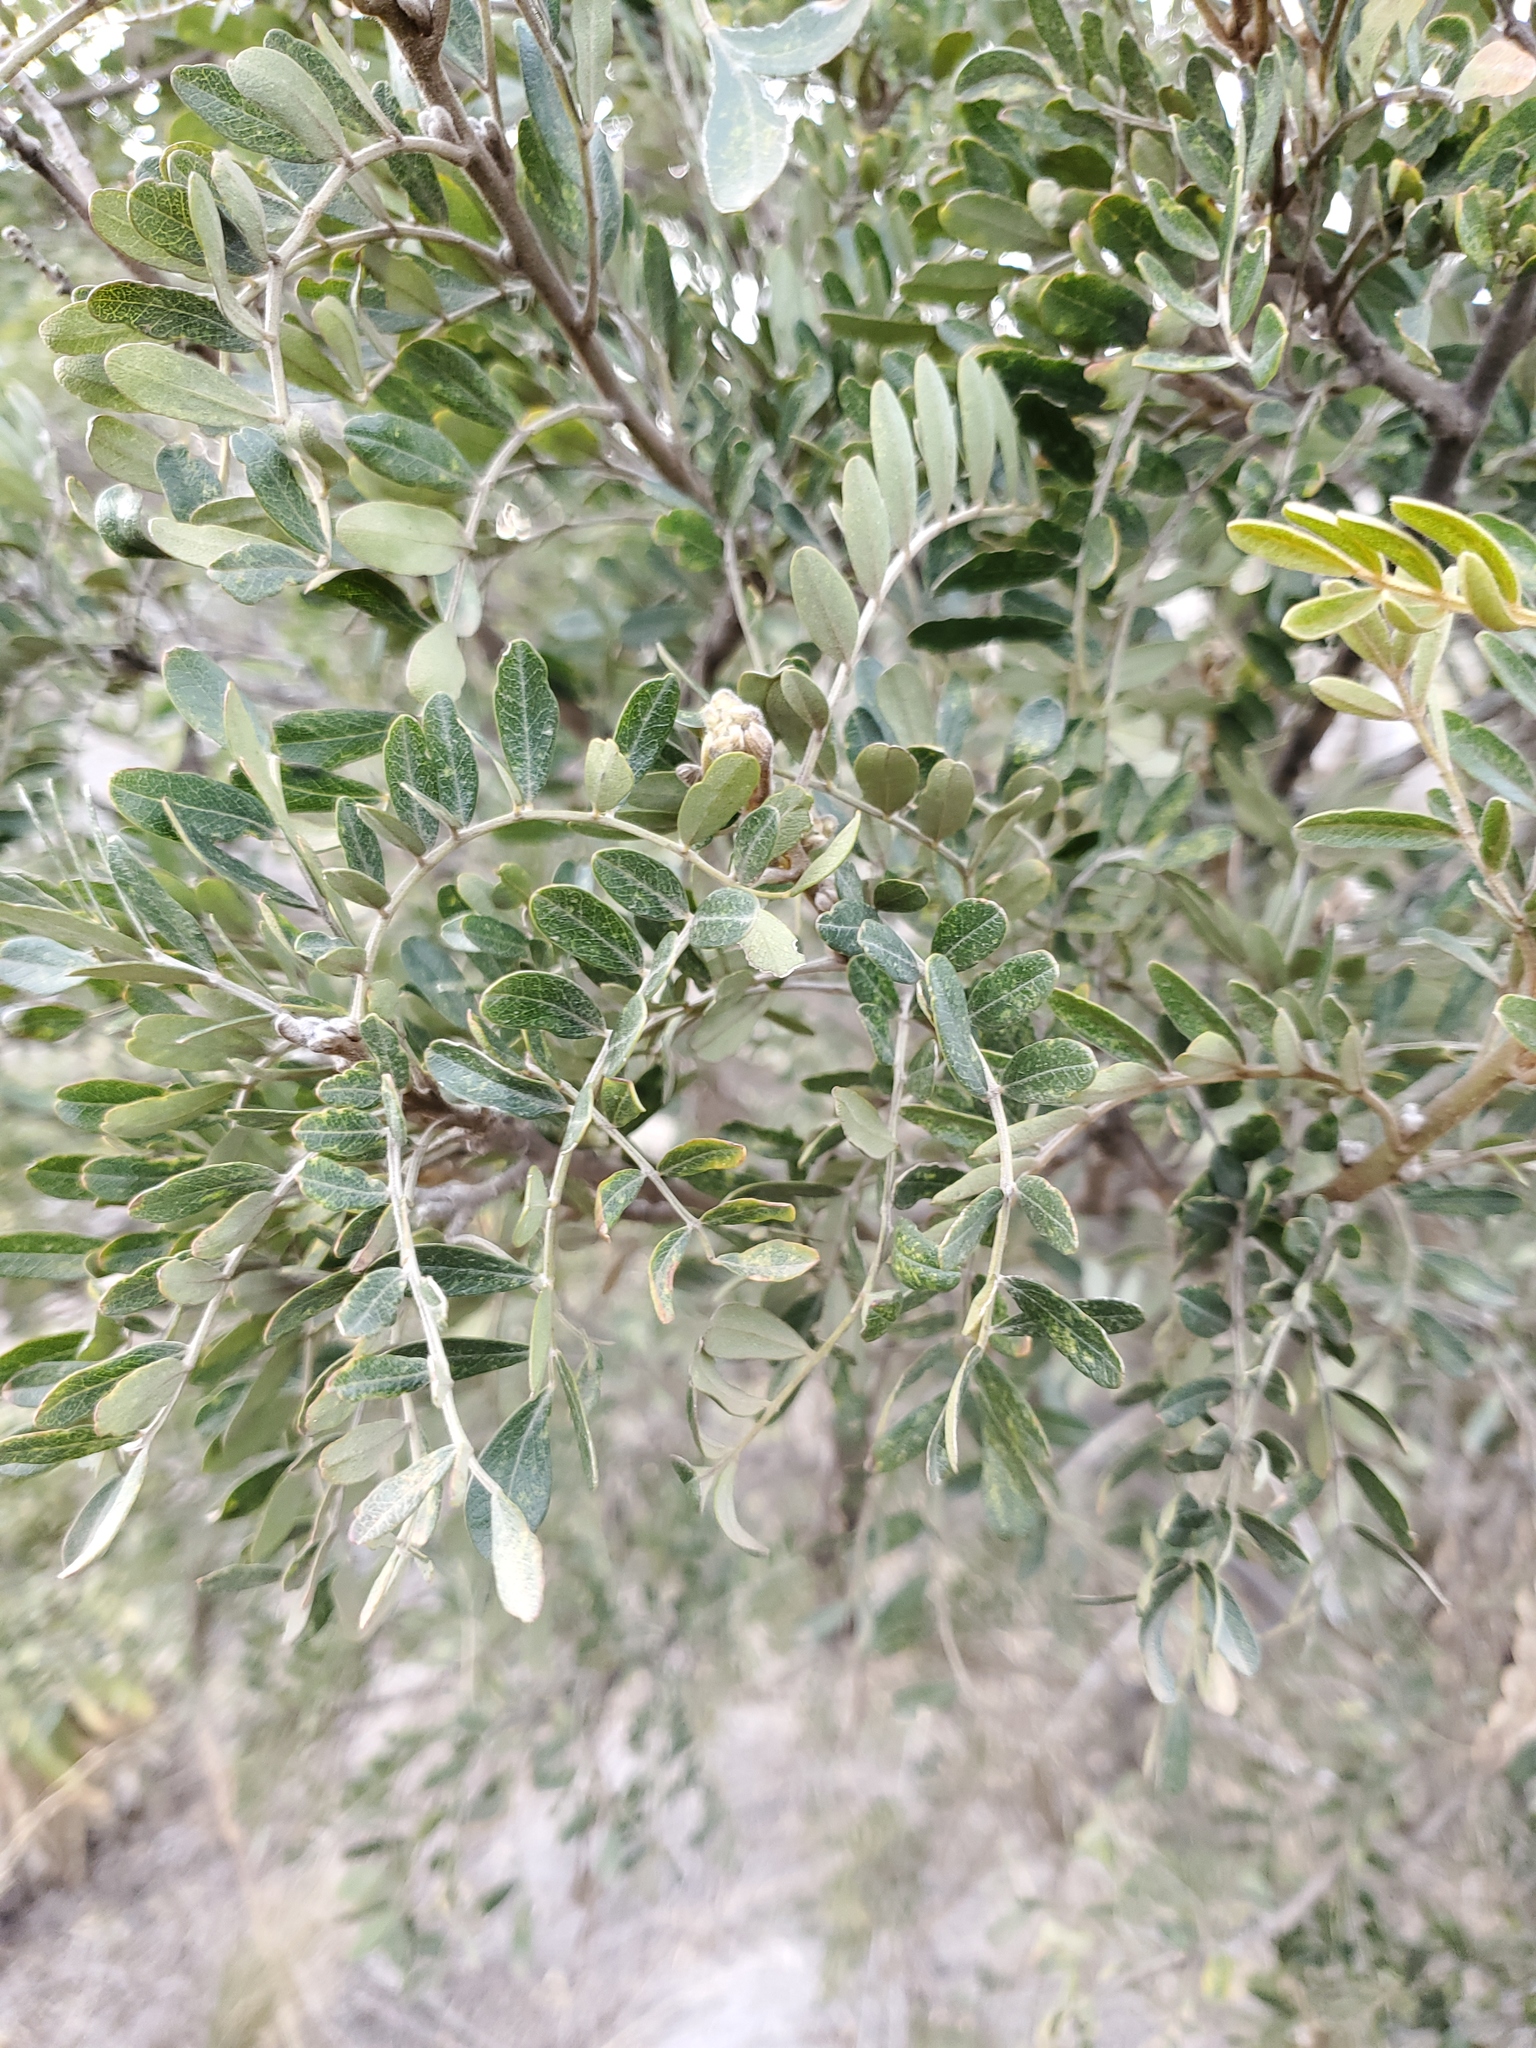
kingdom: Plantae
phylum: Tracheophyta
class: Magnoliopsida
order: Fabales
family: Fabaceae
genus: Sophora
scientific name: Sophora chrysophylla
